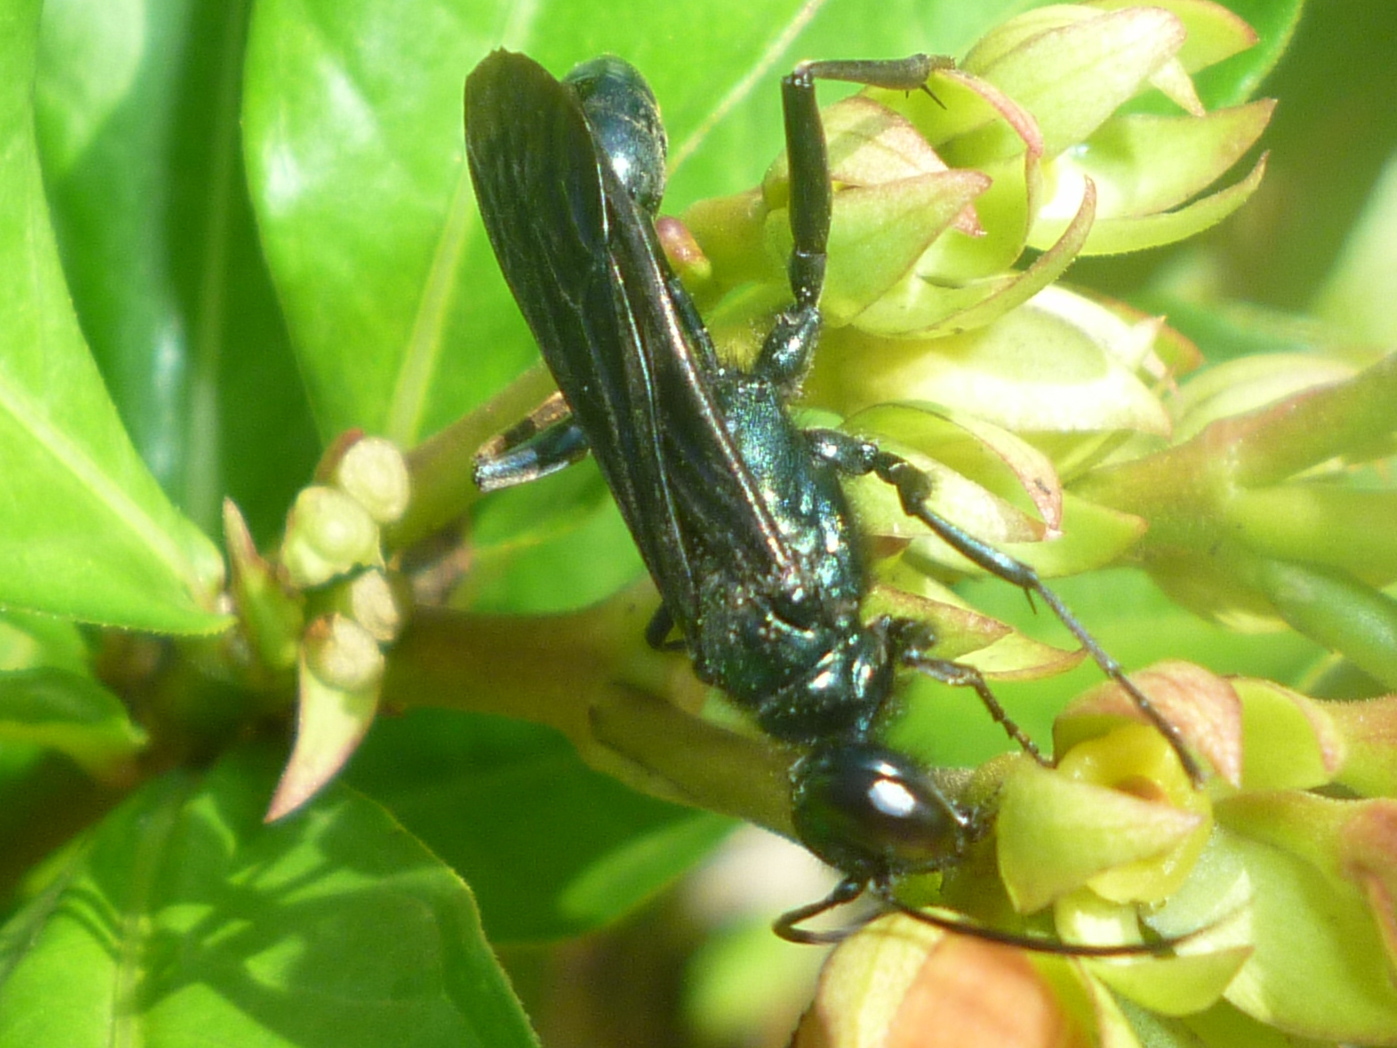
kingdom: Animalia
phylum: Arthropoda
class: Insecta
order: Hymenoptera
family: Sphecidae
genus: Chalybion
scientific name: Chalybion californicum
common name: Mud dauber
